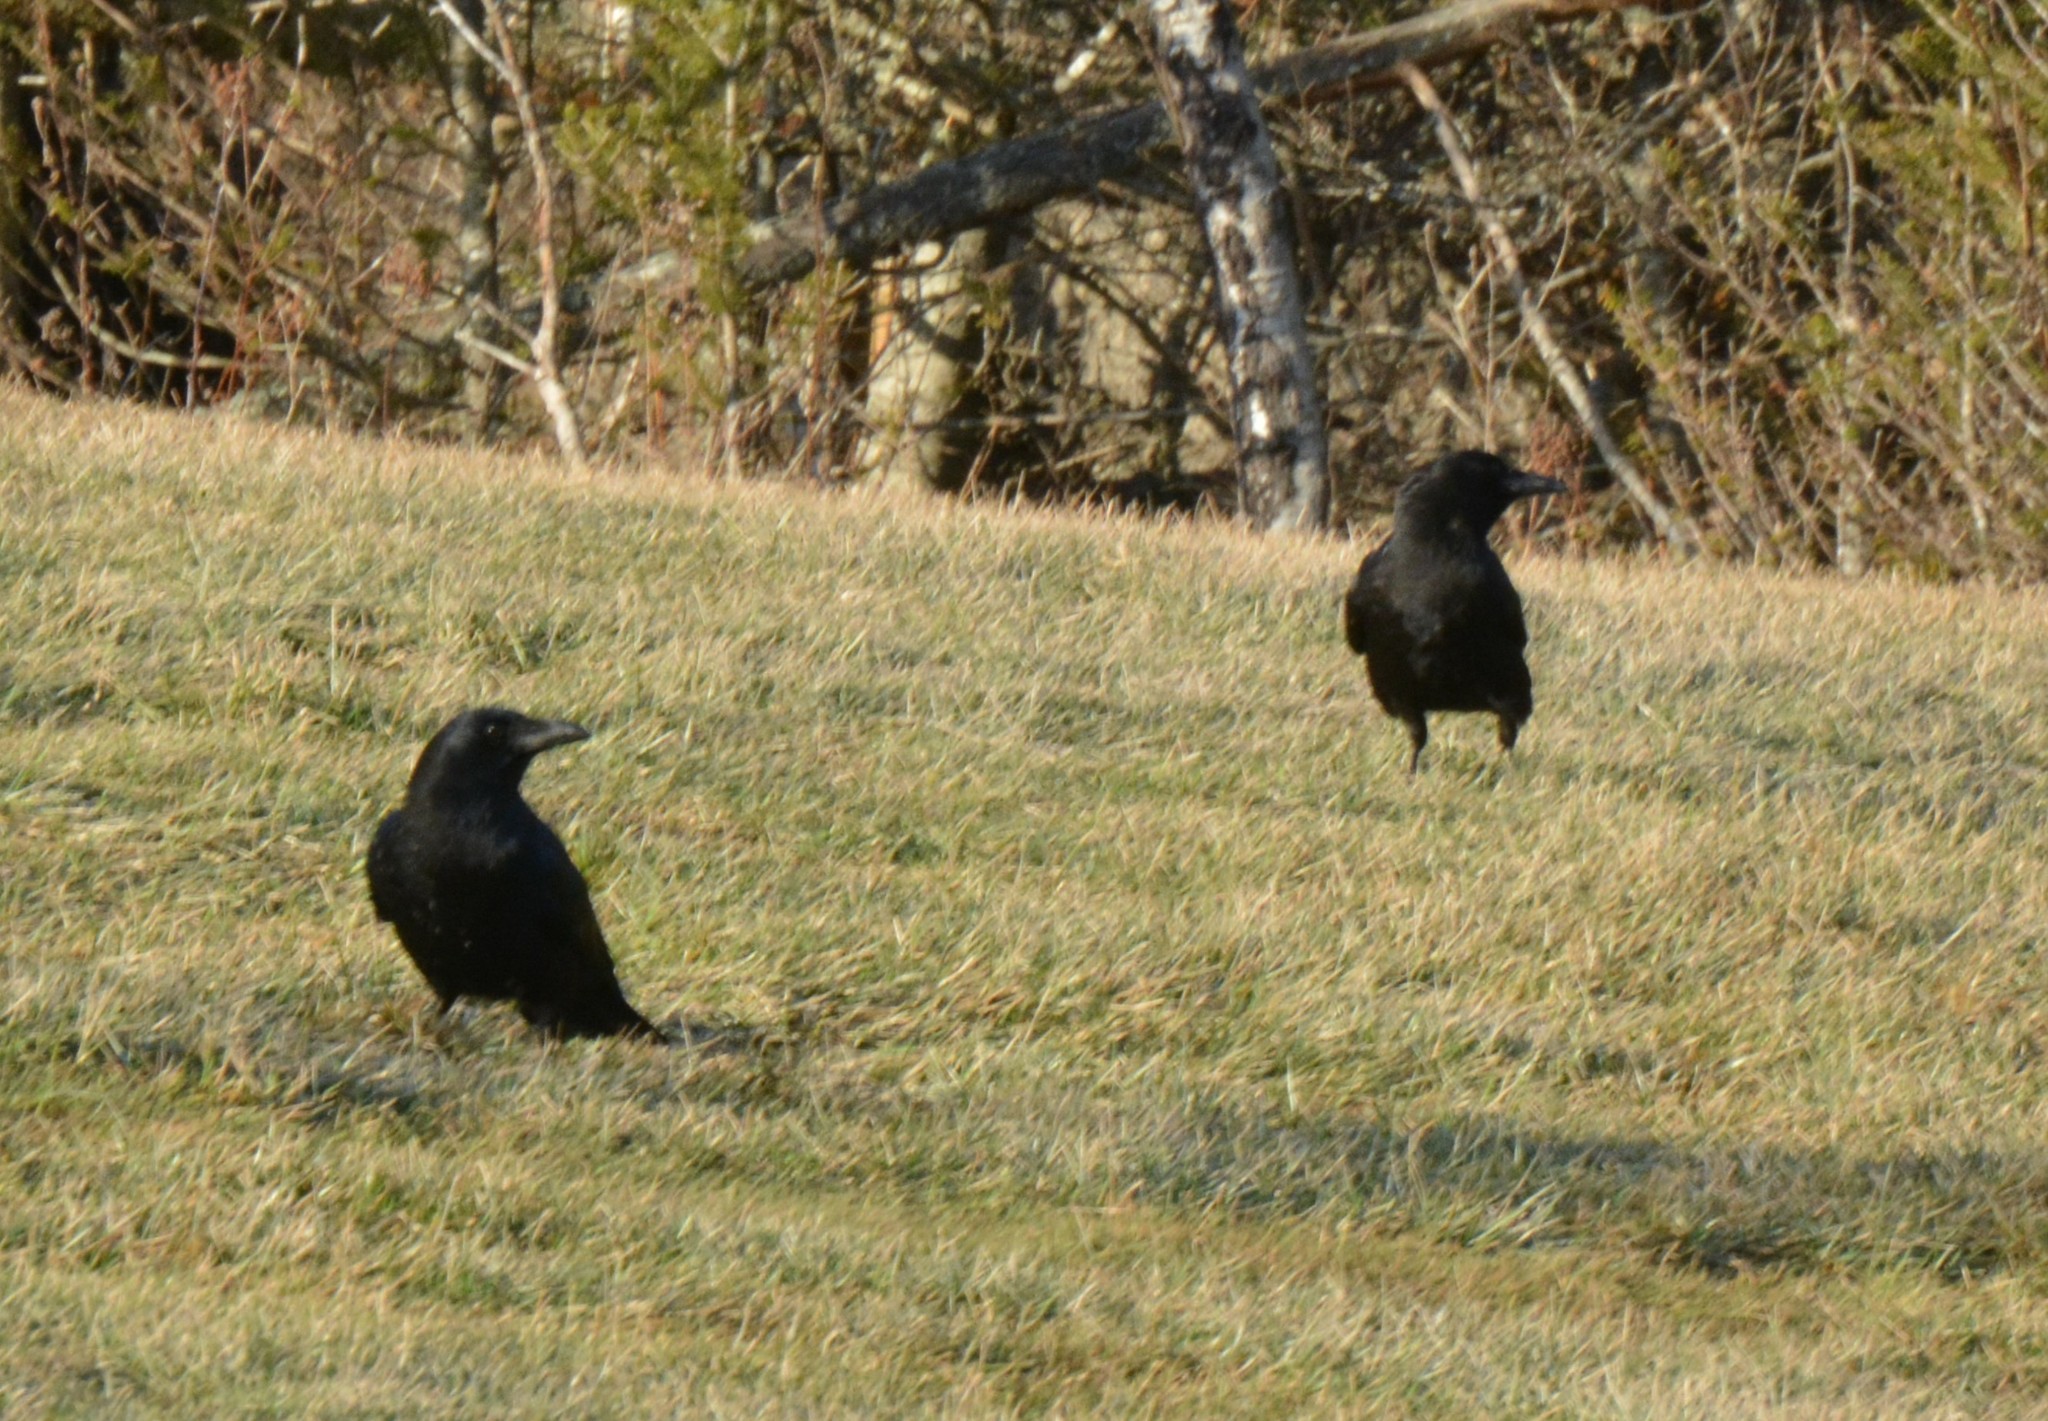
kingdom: Animalia
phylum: Chordata
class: Aves
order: Passeriformes
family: Corvidae
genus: Corvus
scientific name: Corvus brachyrhynchos
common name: American crow
